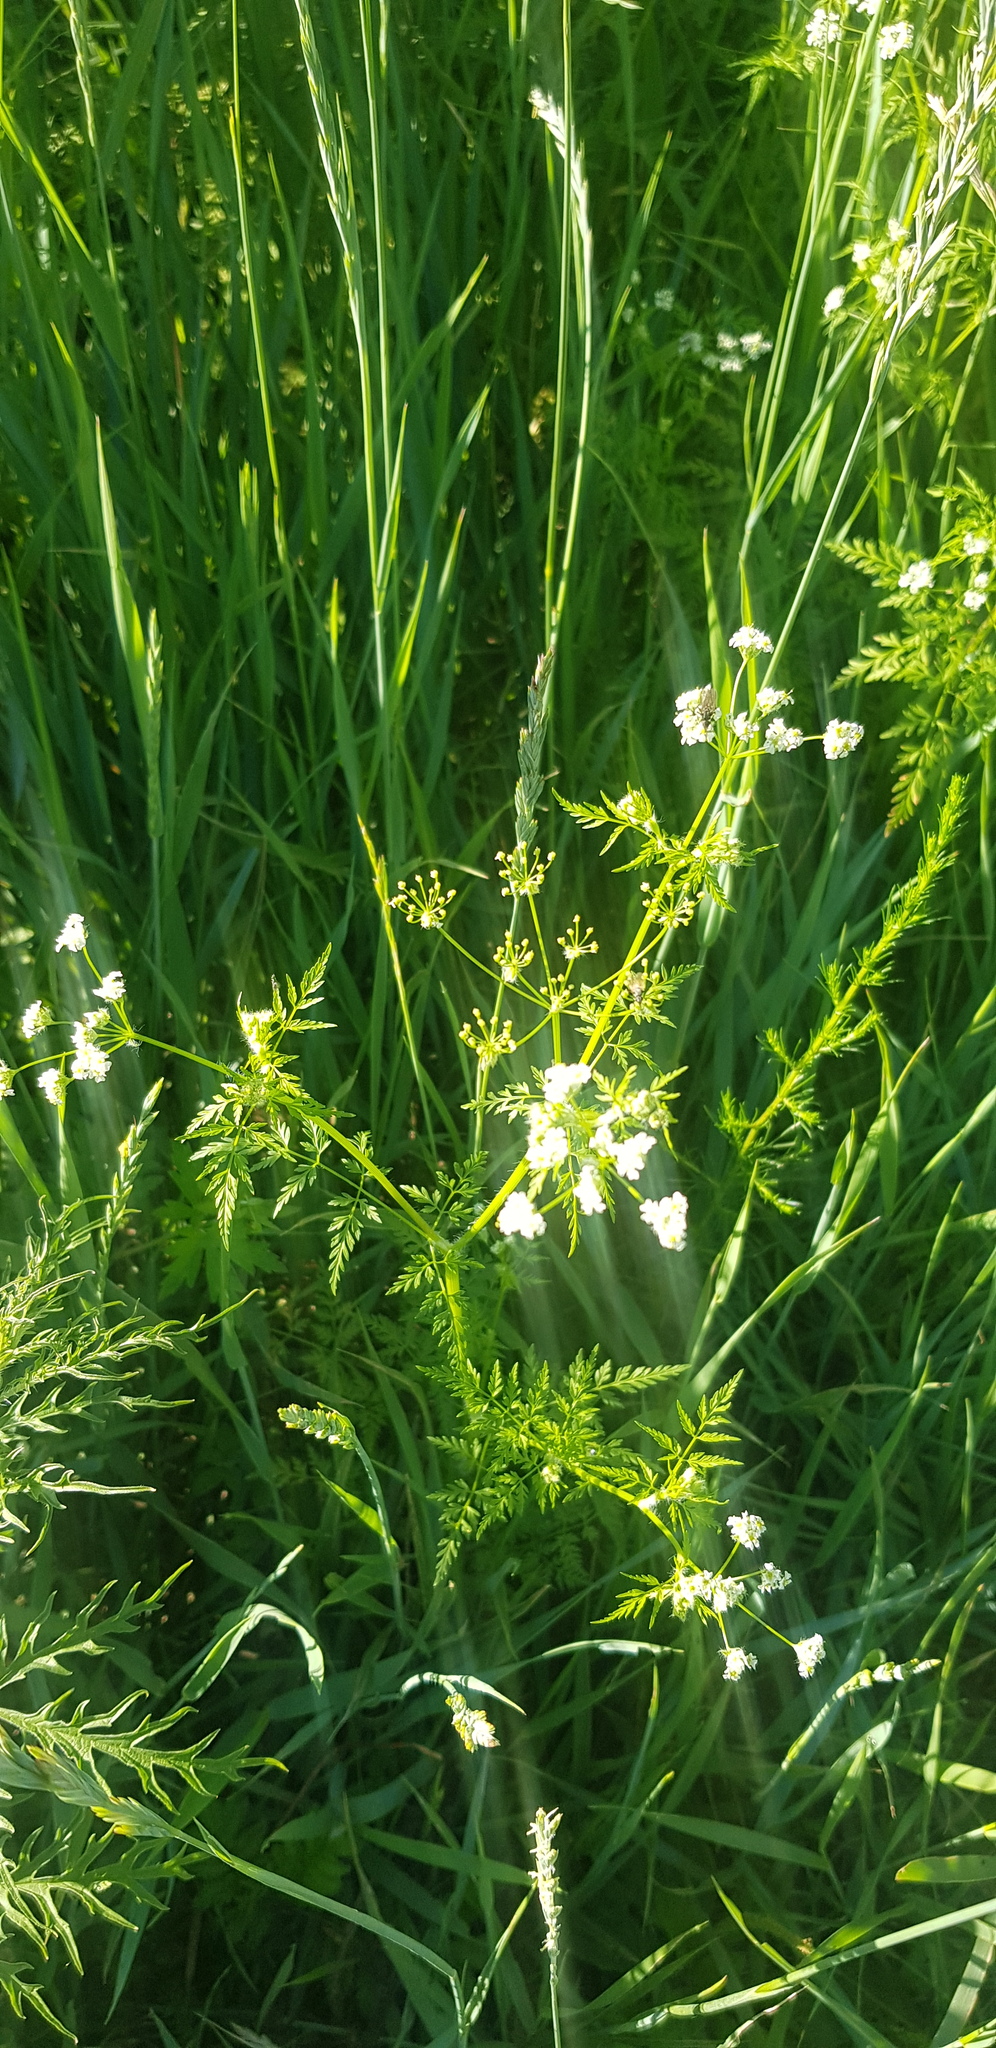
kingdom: Plantae
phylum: Tracheophyta
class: Magnoliopsida
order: Apiales
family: Apiaceae
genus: Sphallerocarpus
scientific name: Sphallerocarpus gracilis
